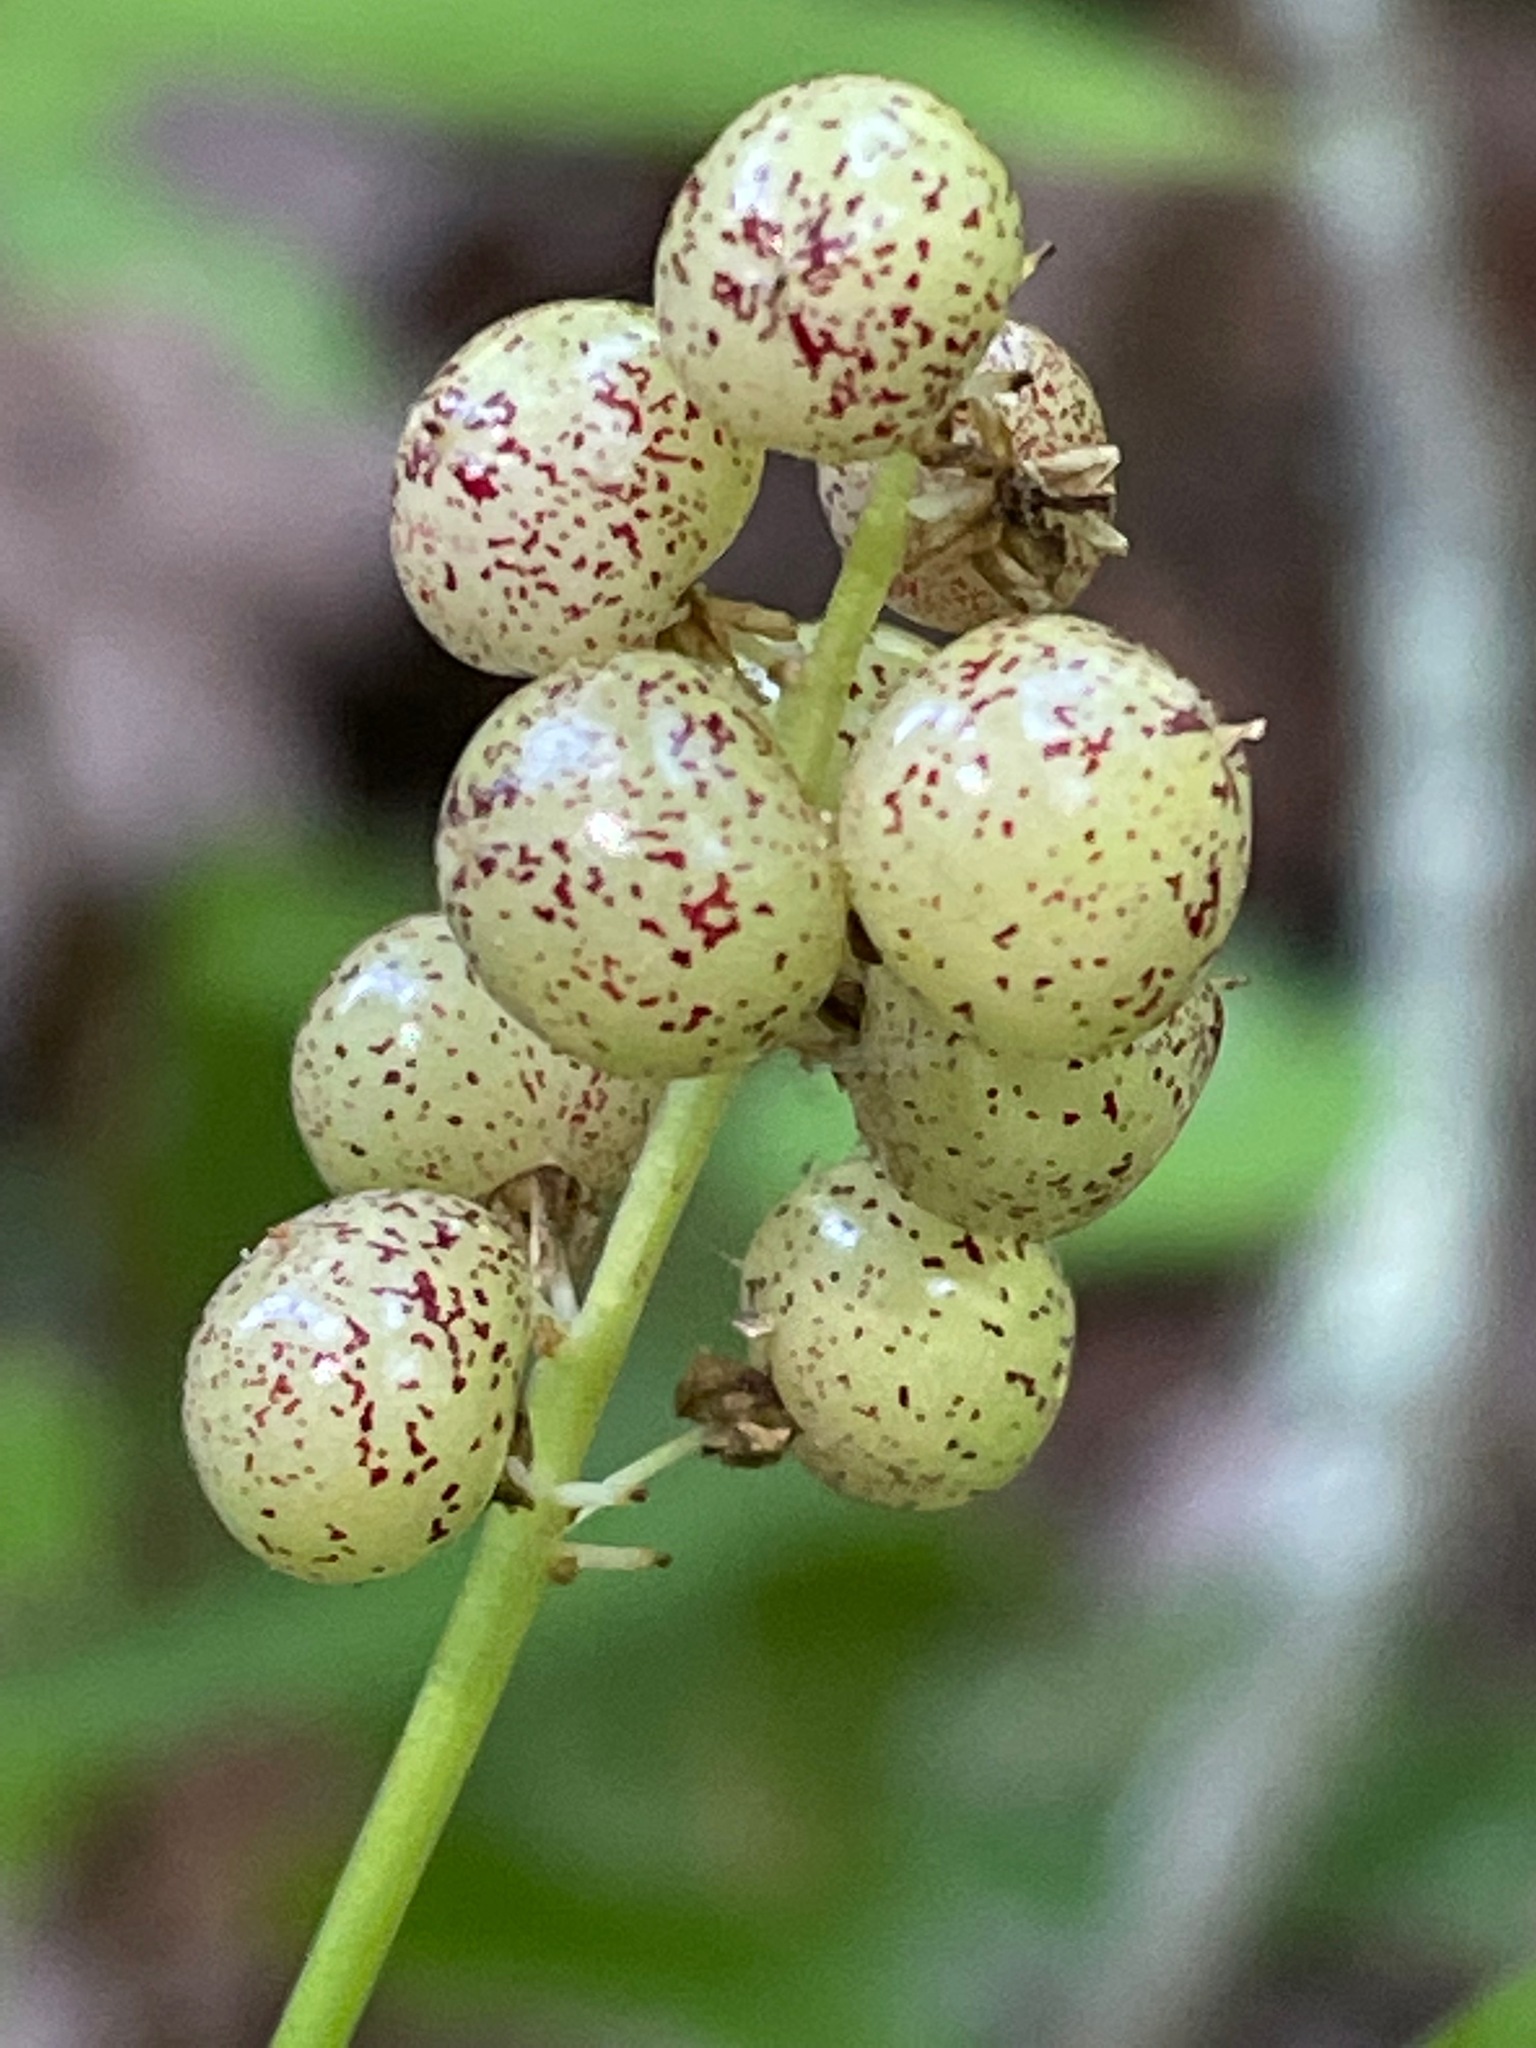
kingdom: Plantae
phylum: Tracheophyta
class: Liliopsida
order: Asparagales
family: Asparagaceae
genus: Maianthemum
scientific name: Maianthemum canadense
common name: False lily-of-the-valley
